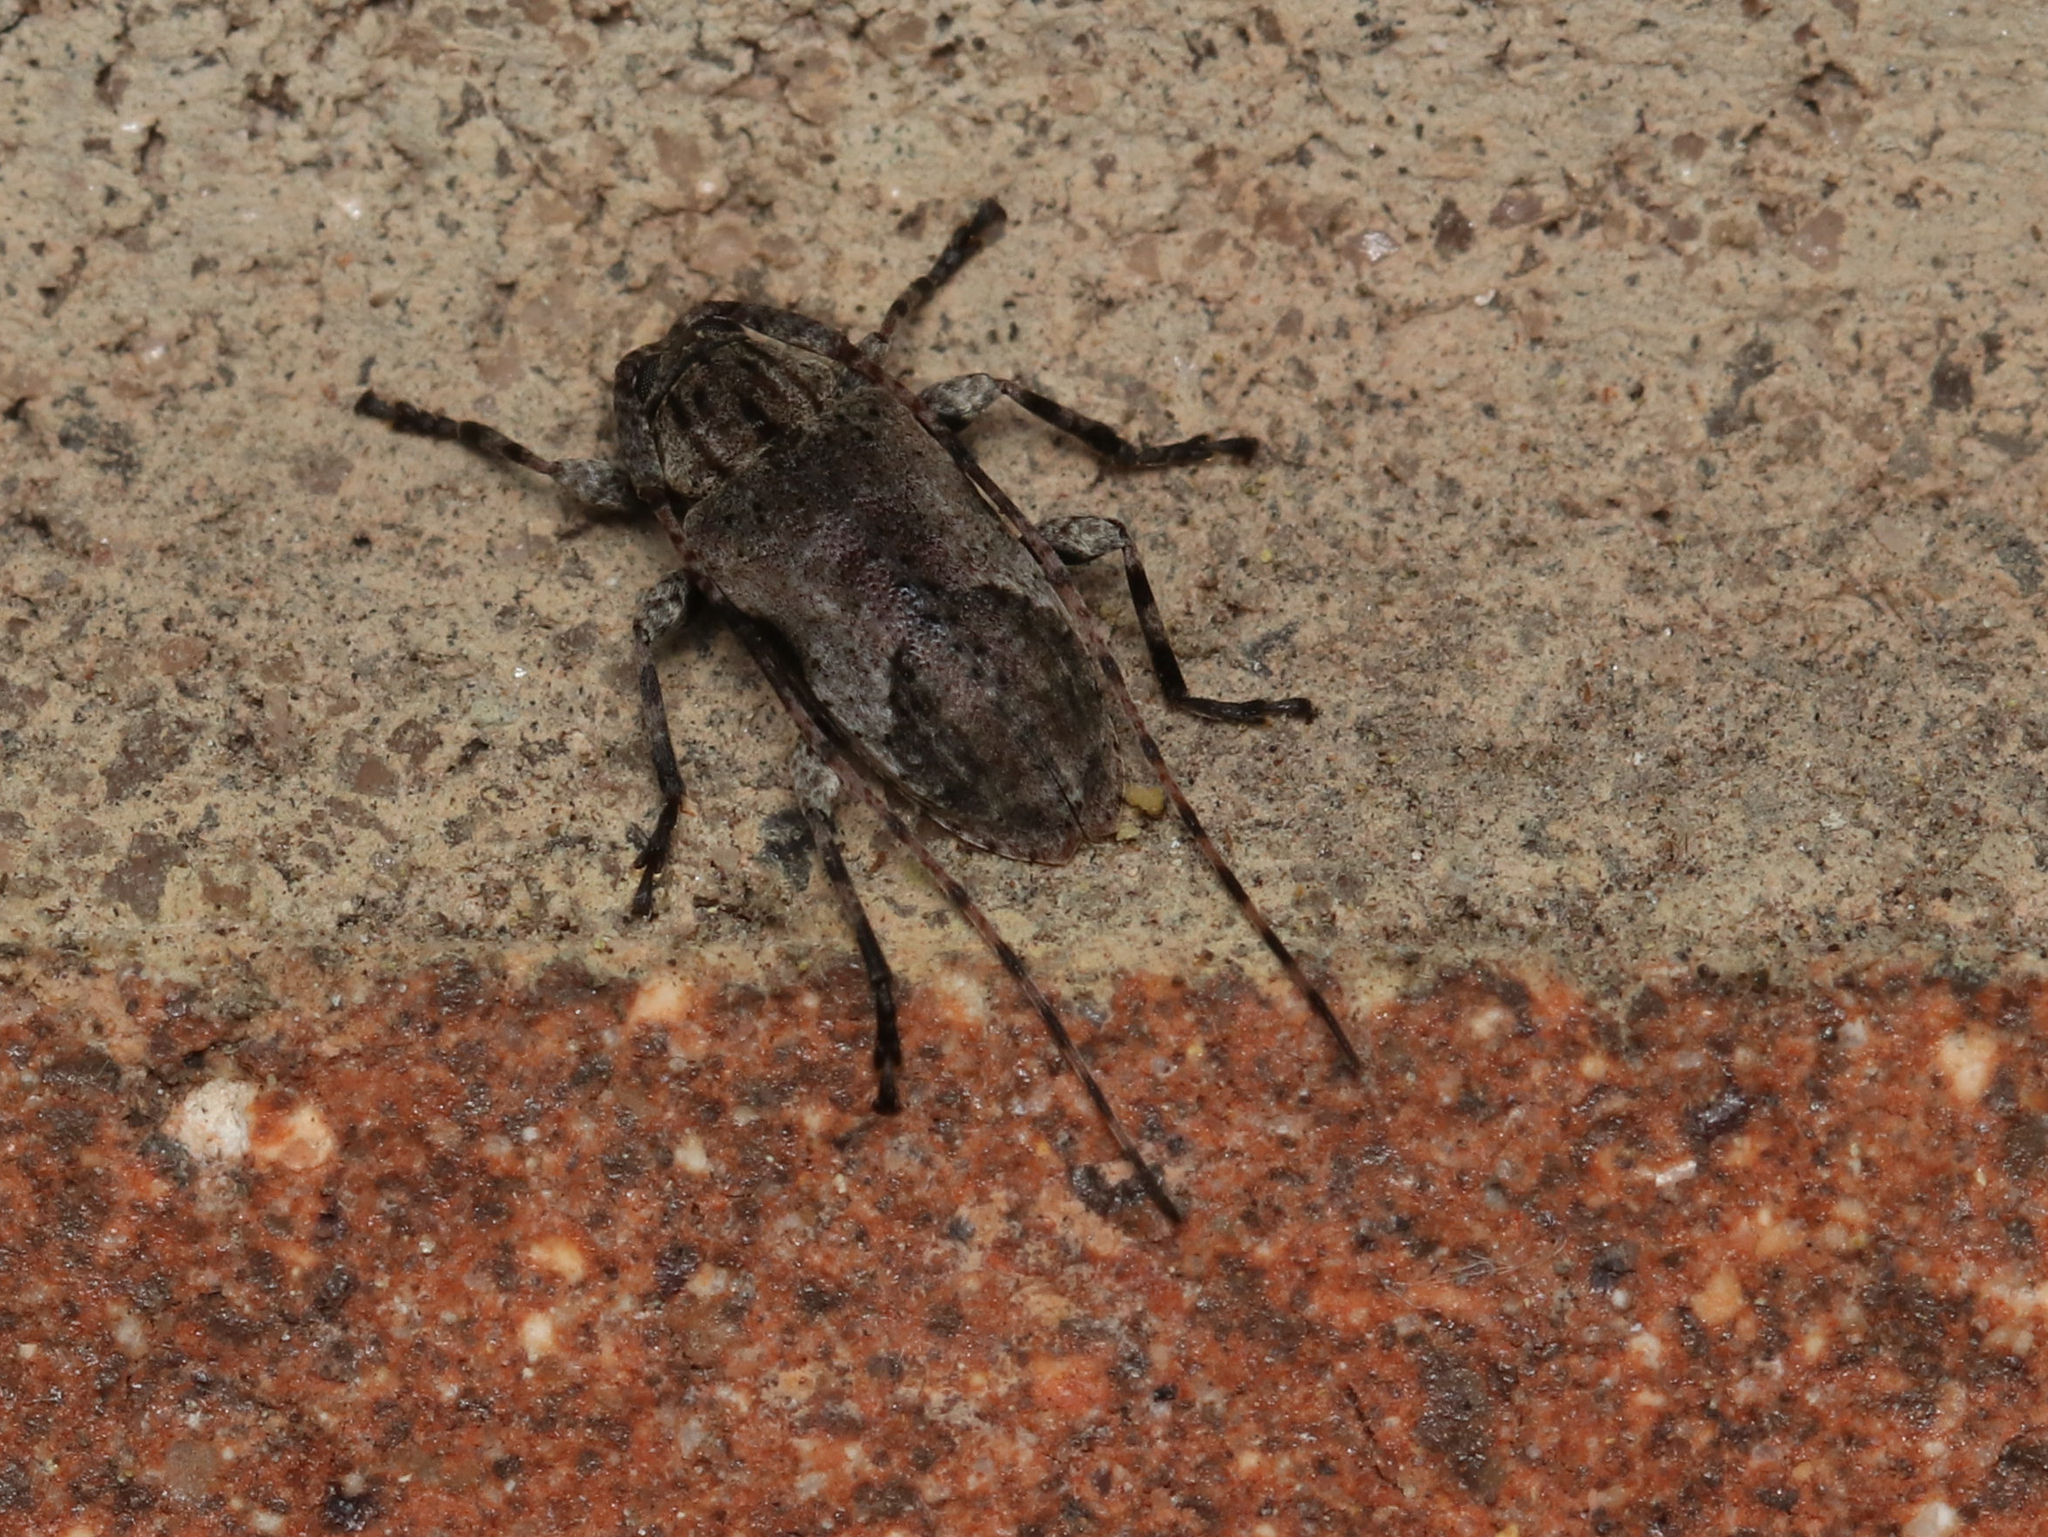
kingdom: Animalia
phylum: Arthropoda
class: Insecta
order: Coleoptera
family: Cerambycidae
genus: Styloleptus
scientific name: Styloleptus biustus
